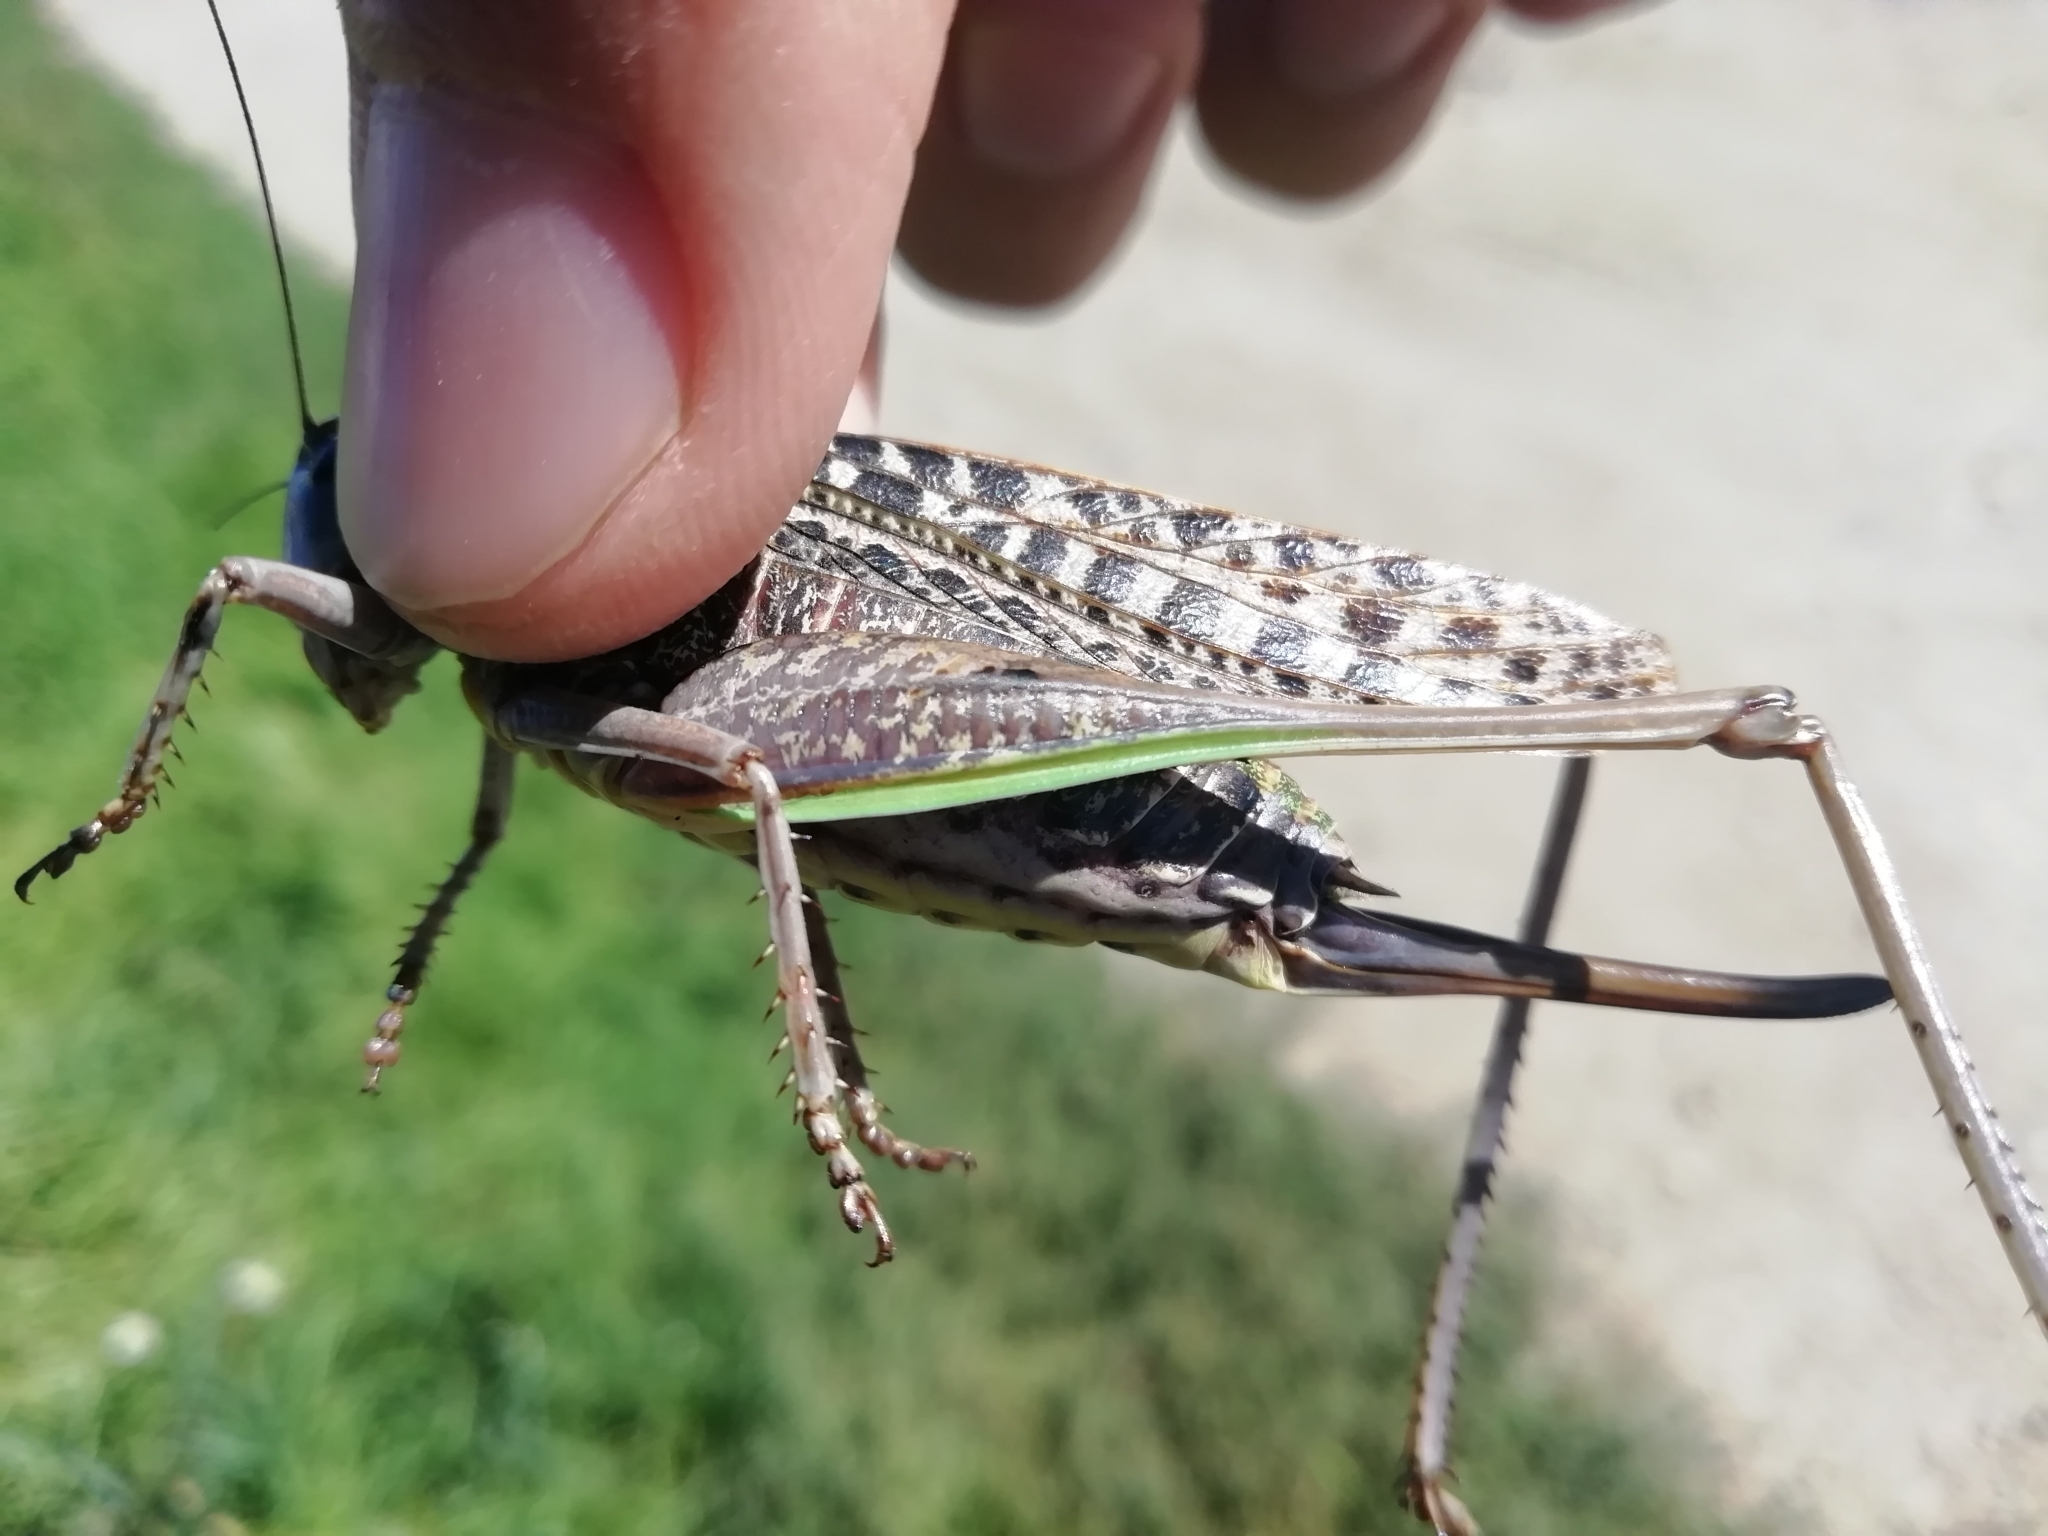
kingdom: Animalia
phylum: Arthropoda
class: Insecta
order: Orthoptera
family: Tettigoniidae
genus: Decticus
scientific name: Decticus verrucivorus
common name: Wart-biter
